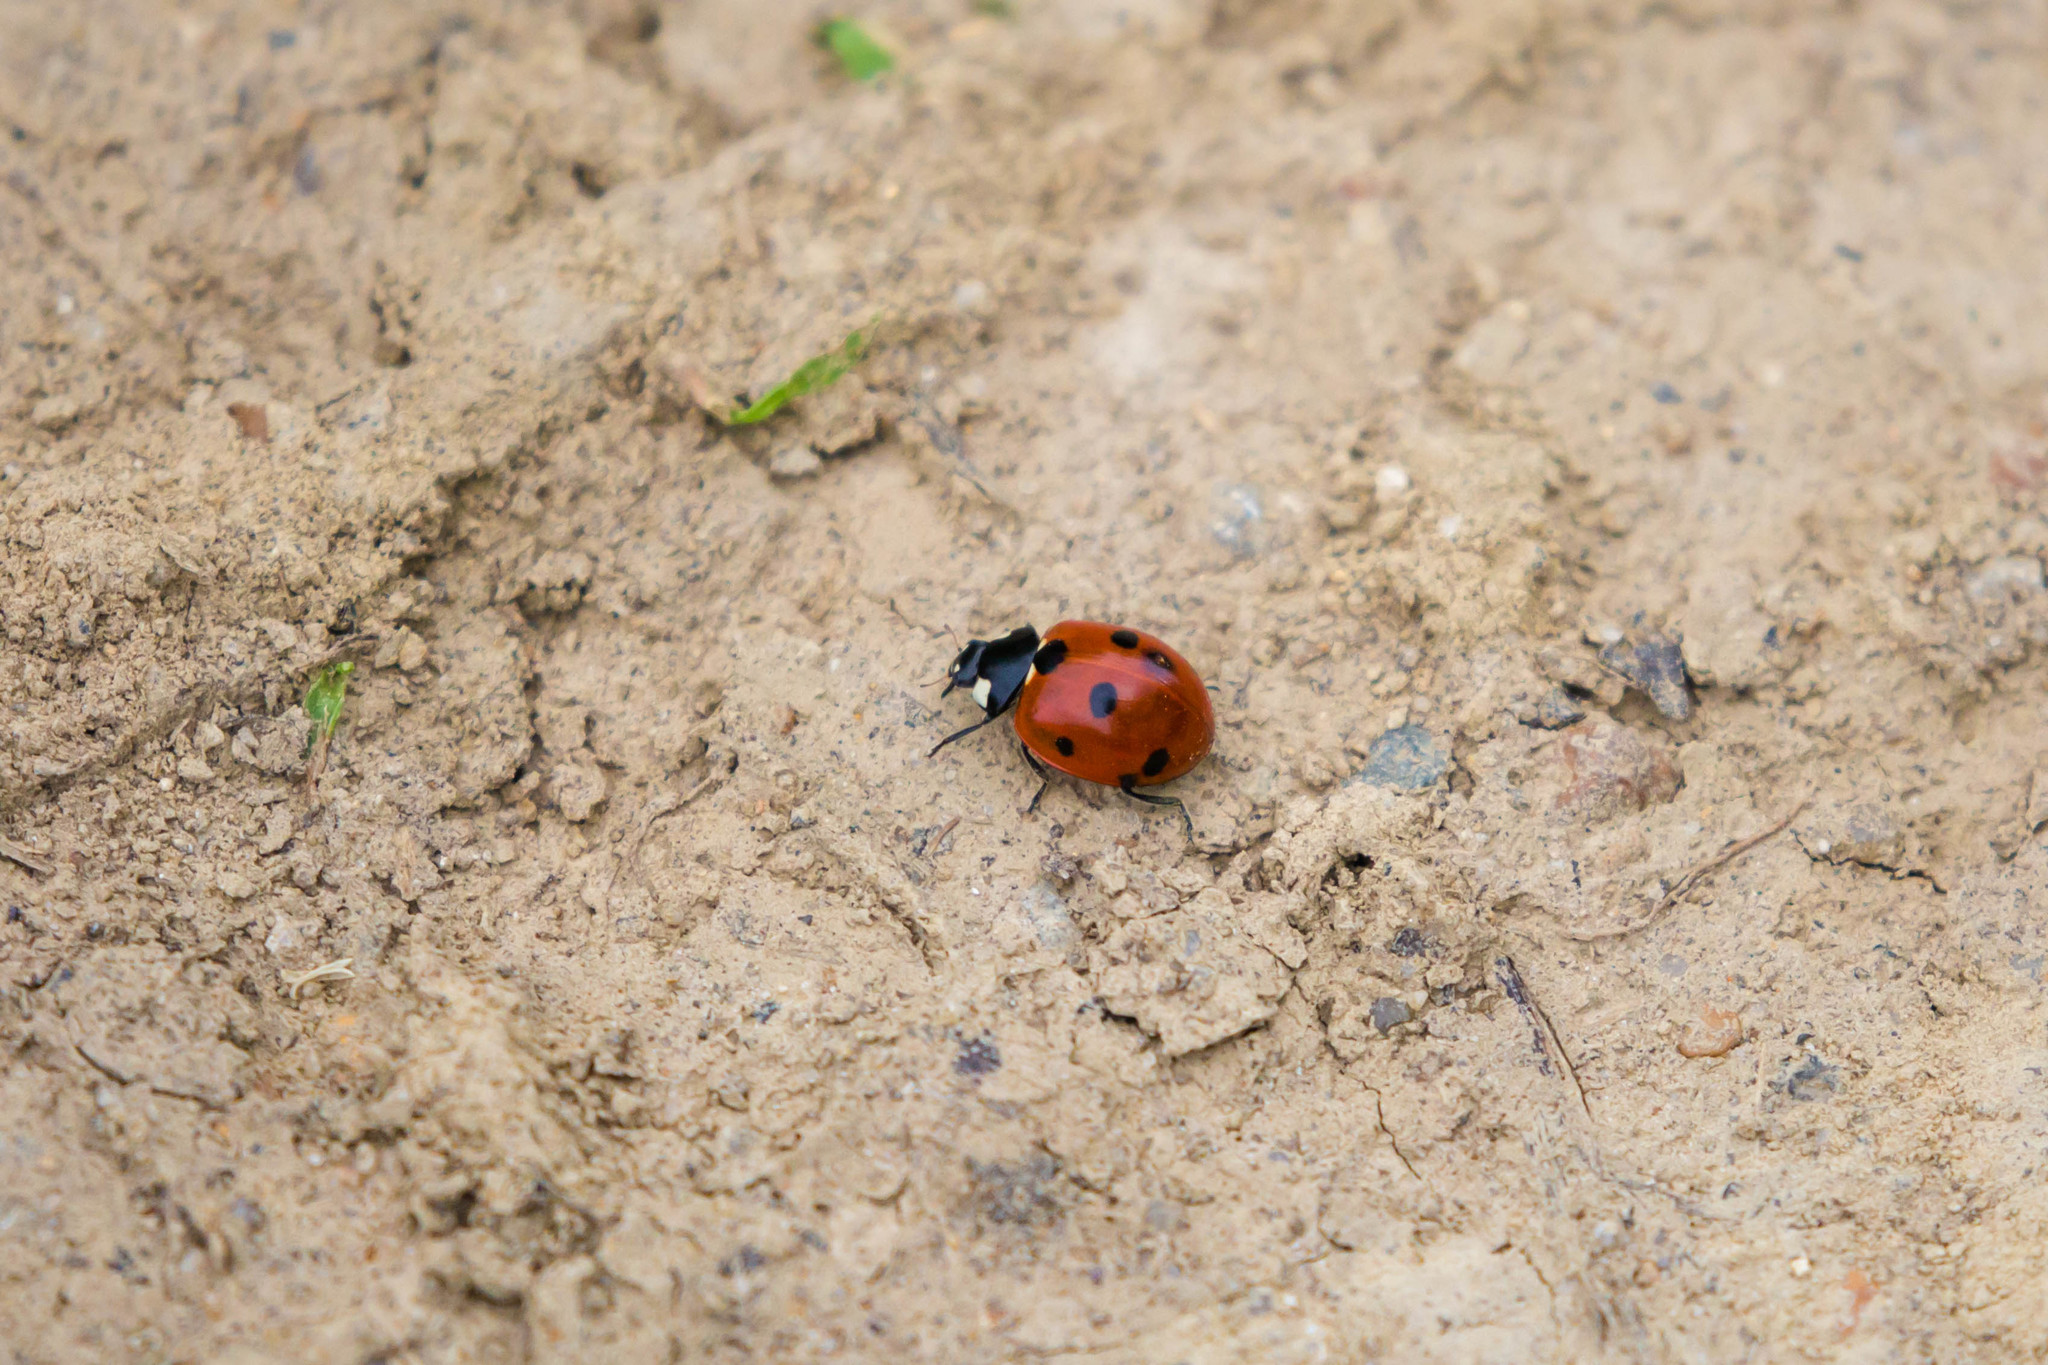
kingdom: Animalia
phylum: Arthropoda
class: Insecta
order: Coleoptera
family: Coccinellidae
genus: Coccinella
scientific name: Coccinella septempunctata
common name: Sevenspotted lady beetle
